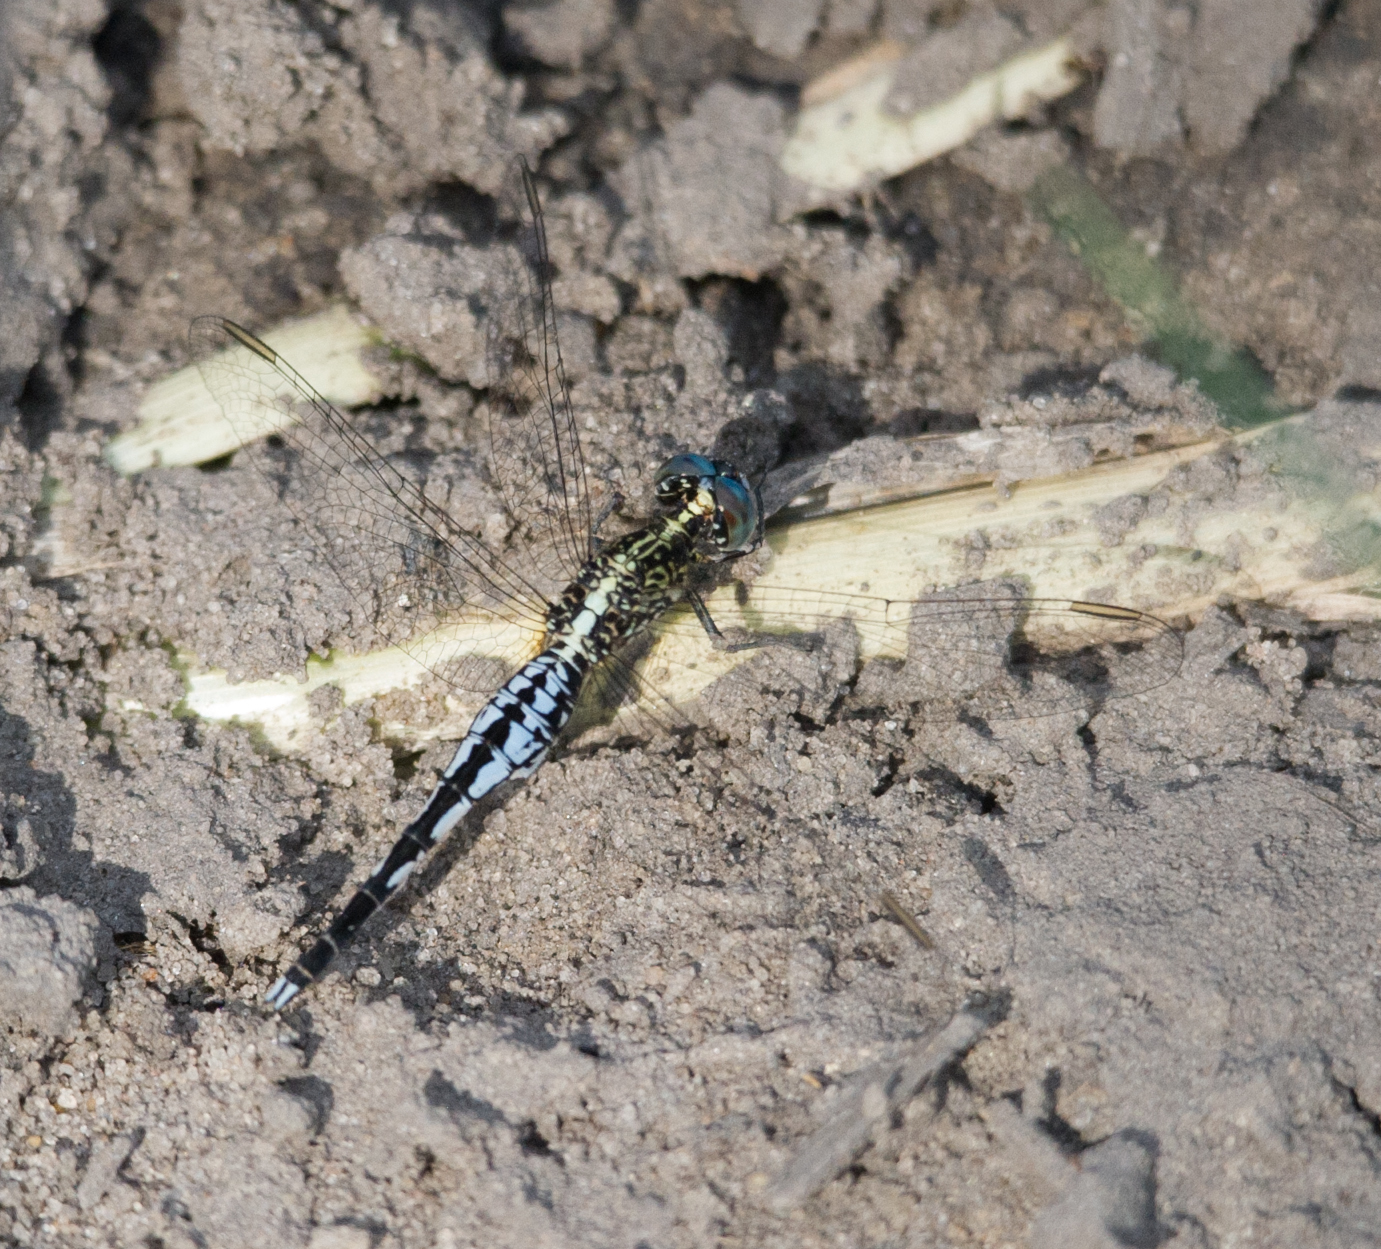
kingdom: Animalia
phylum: Arthropoda
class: Insecta
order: Odonata
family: Libellulidae
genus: Acisoma
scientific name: Acisoma inflatum
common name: Stout pintail
